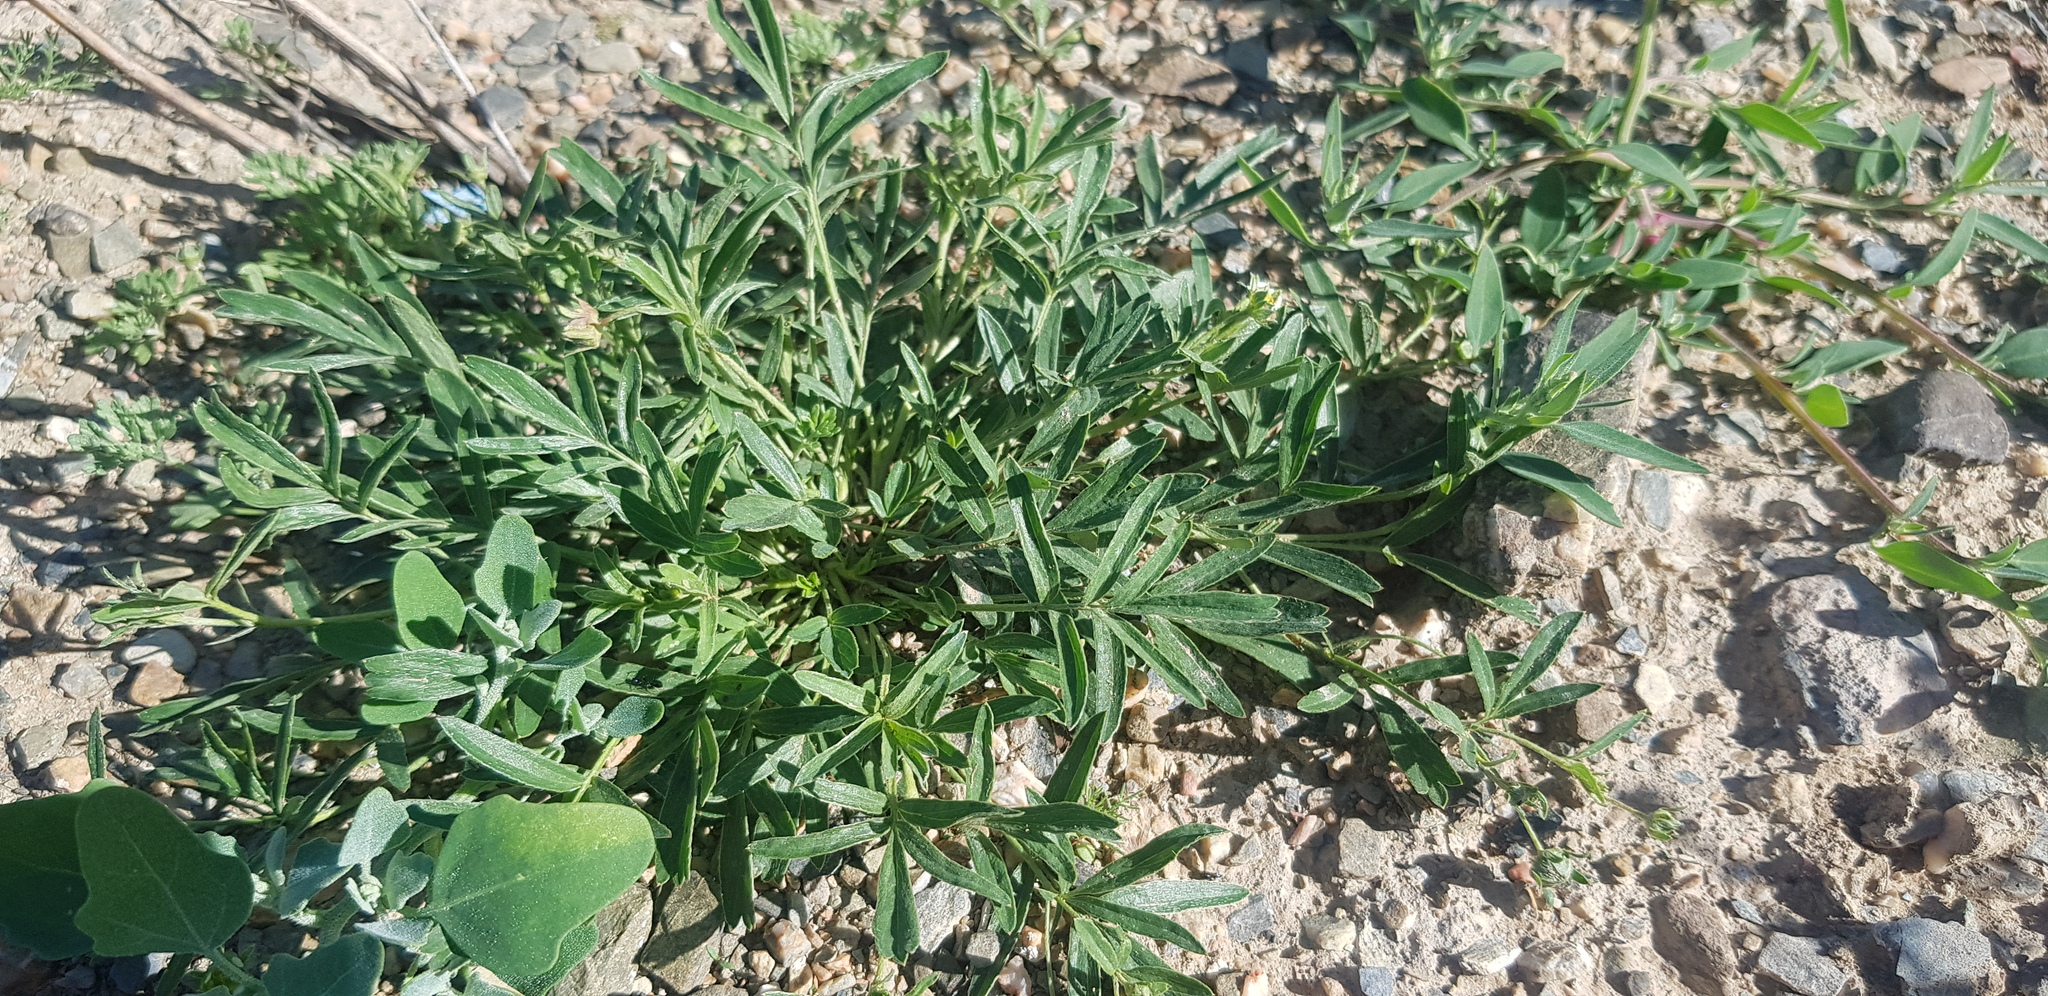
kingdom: Plantae
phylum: Tracheophyta
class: Magnoliopsida
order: Rosales
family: Rosaceae
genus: Sibbaldianthe
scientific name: Sibbaldianthe adpressa
